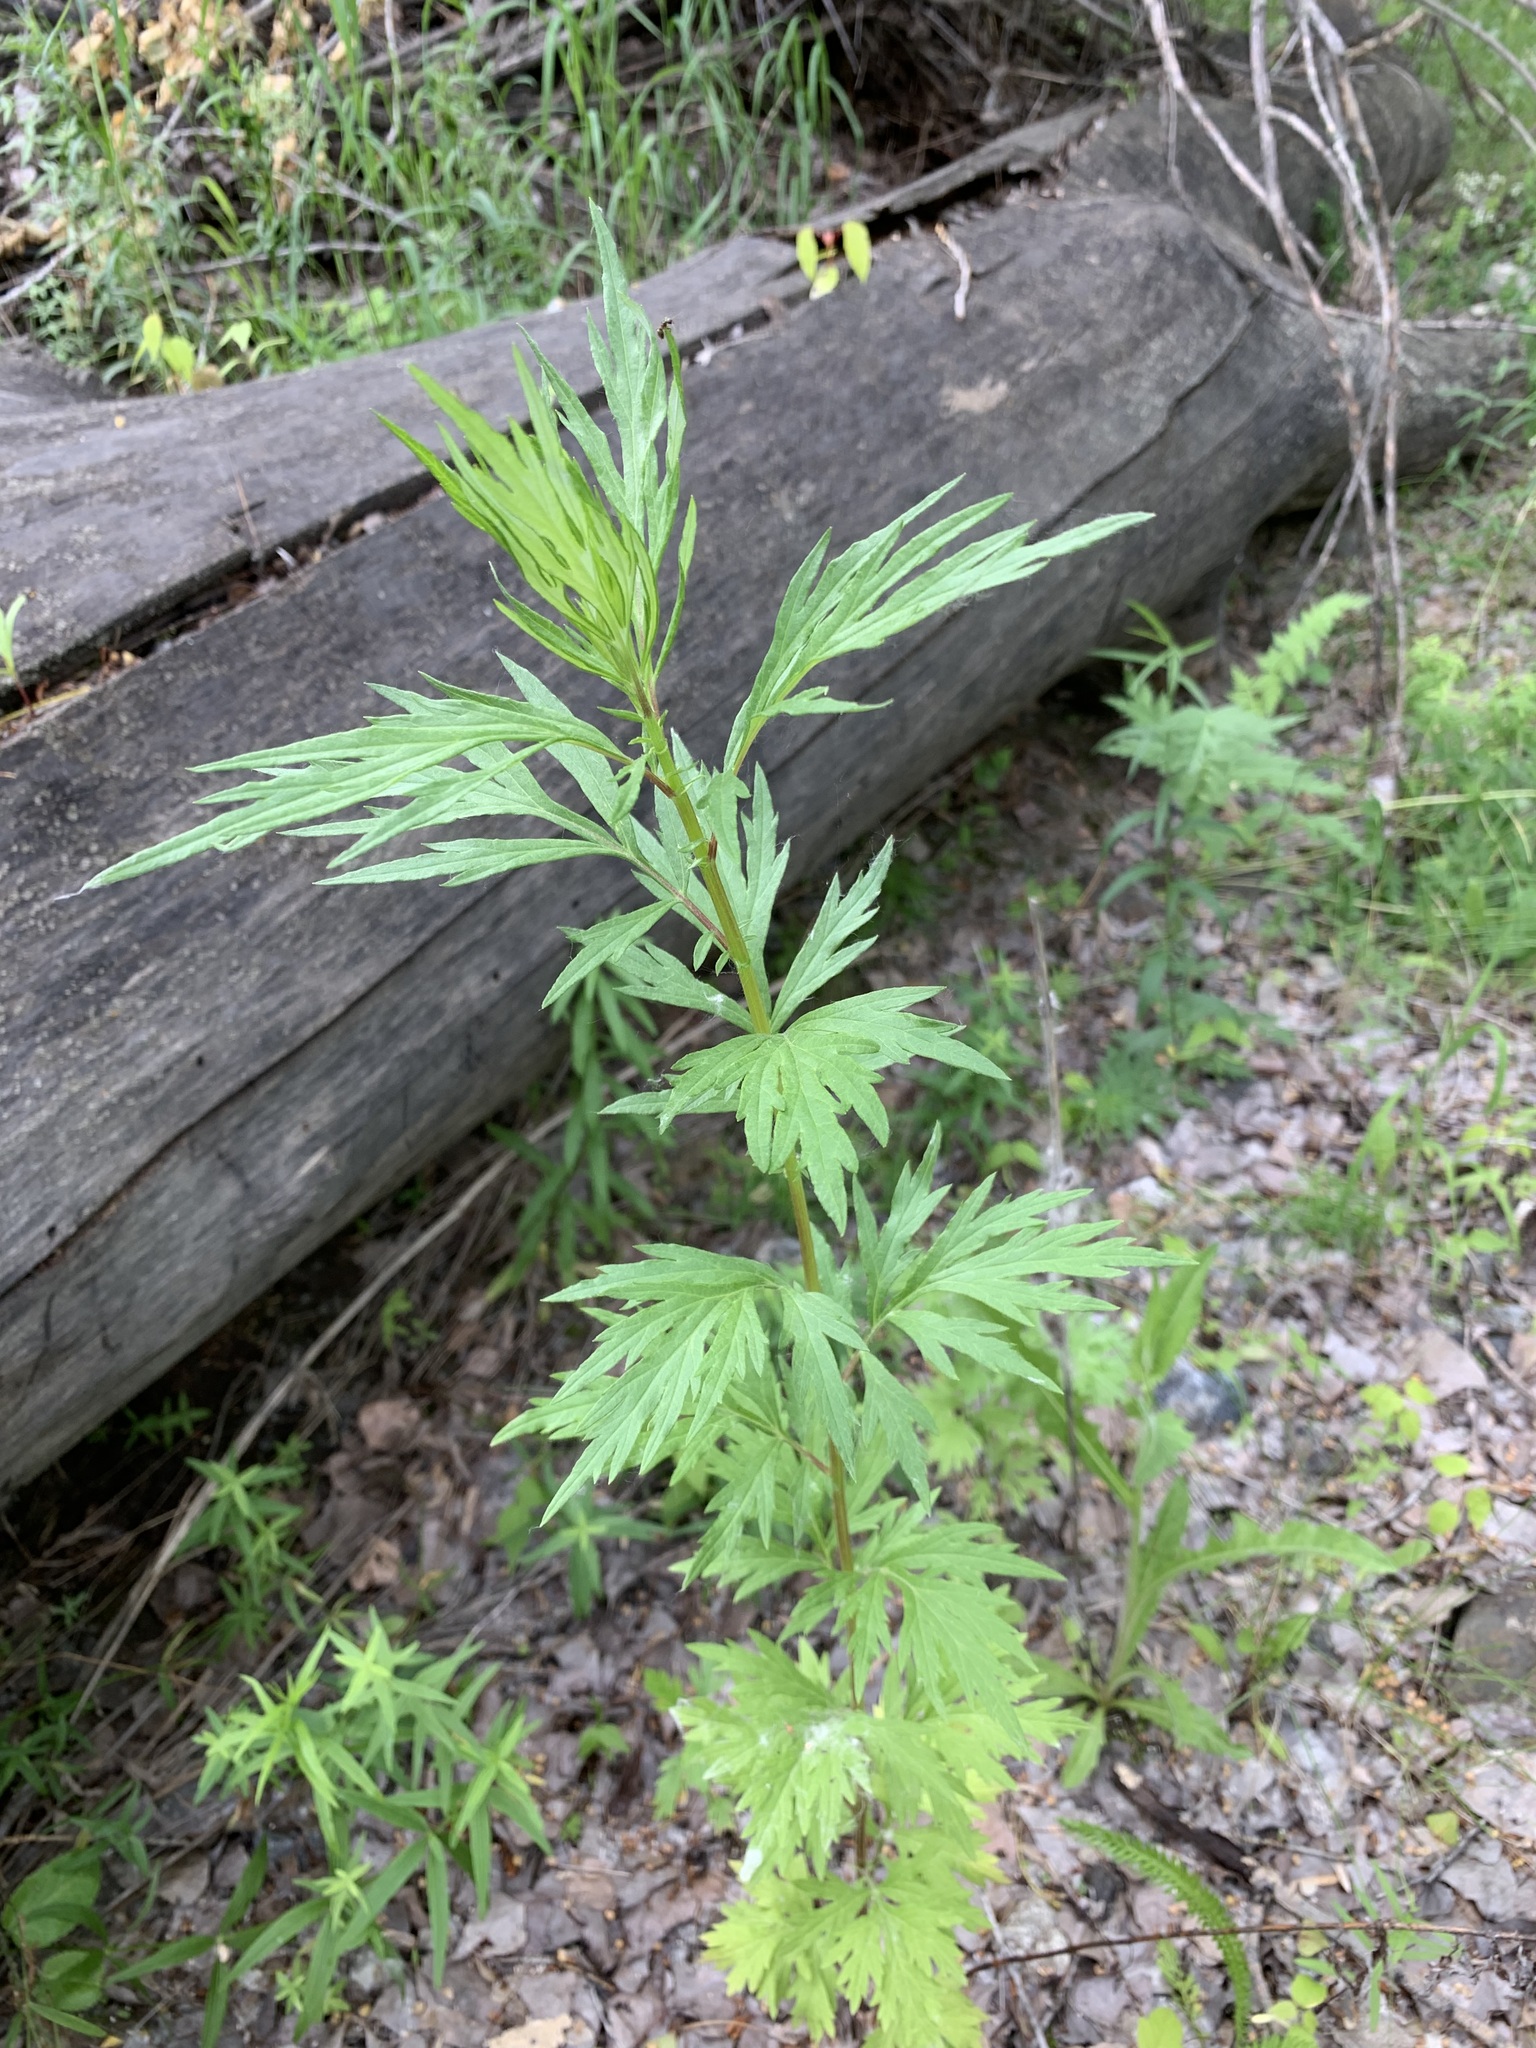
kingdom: Plantae
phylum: Tracheophyta
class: Magnoliopsida
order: Asterales
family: Asteraceae
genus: Artemisia
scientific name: Artemisia vulgaris
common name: Mugwort
